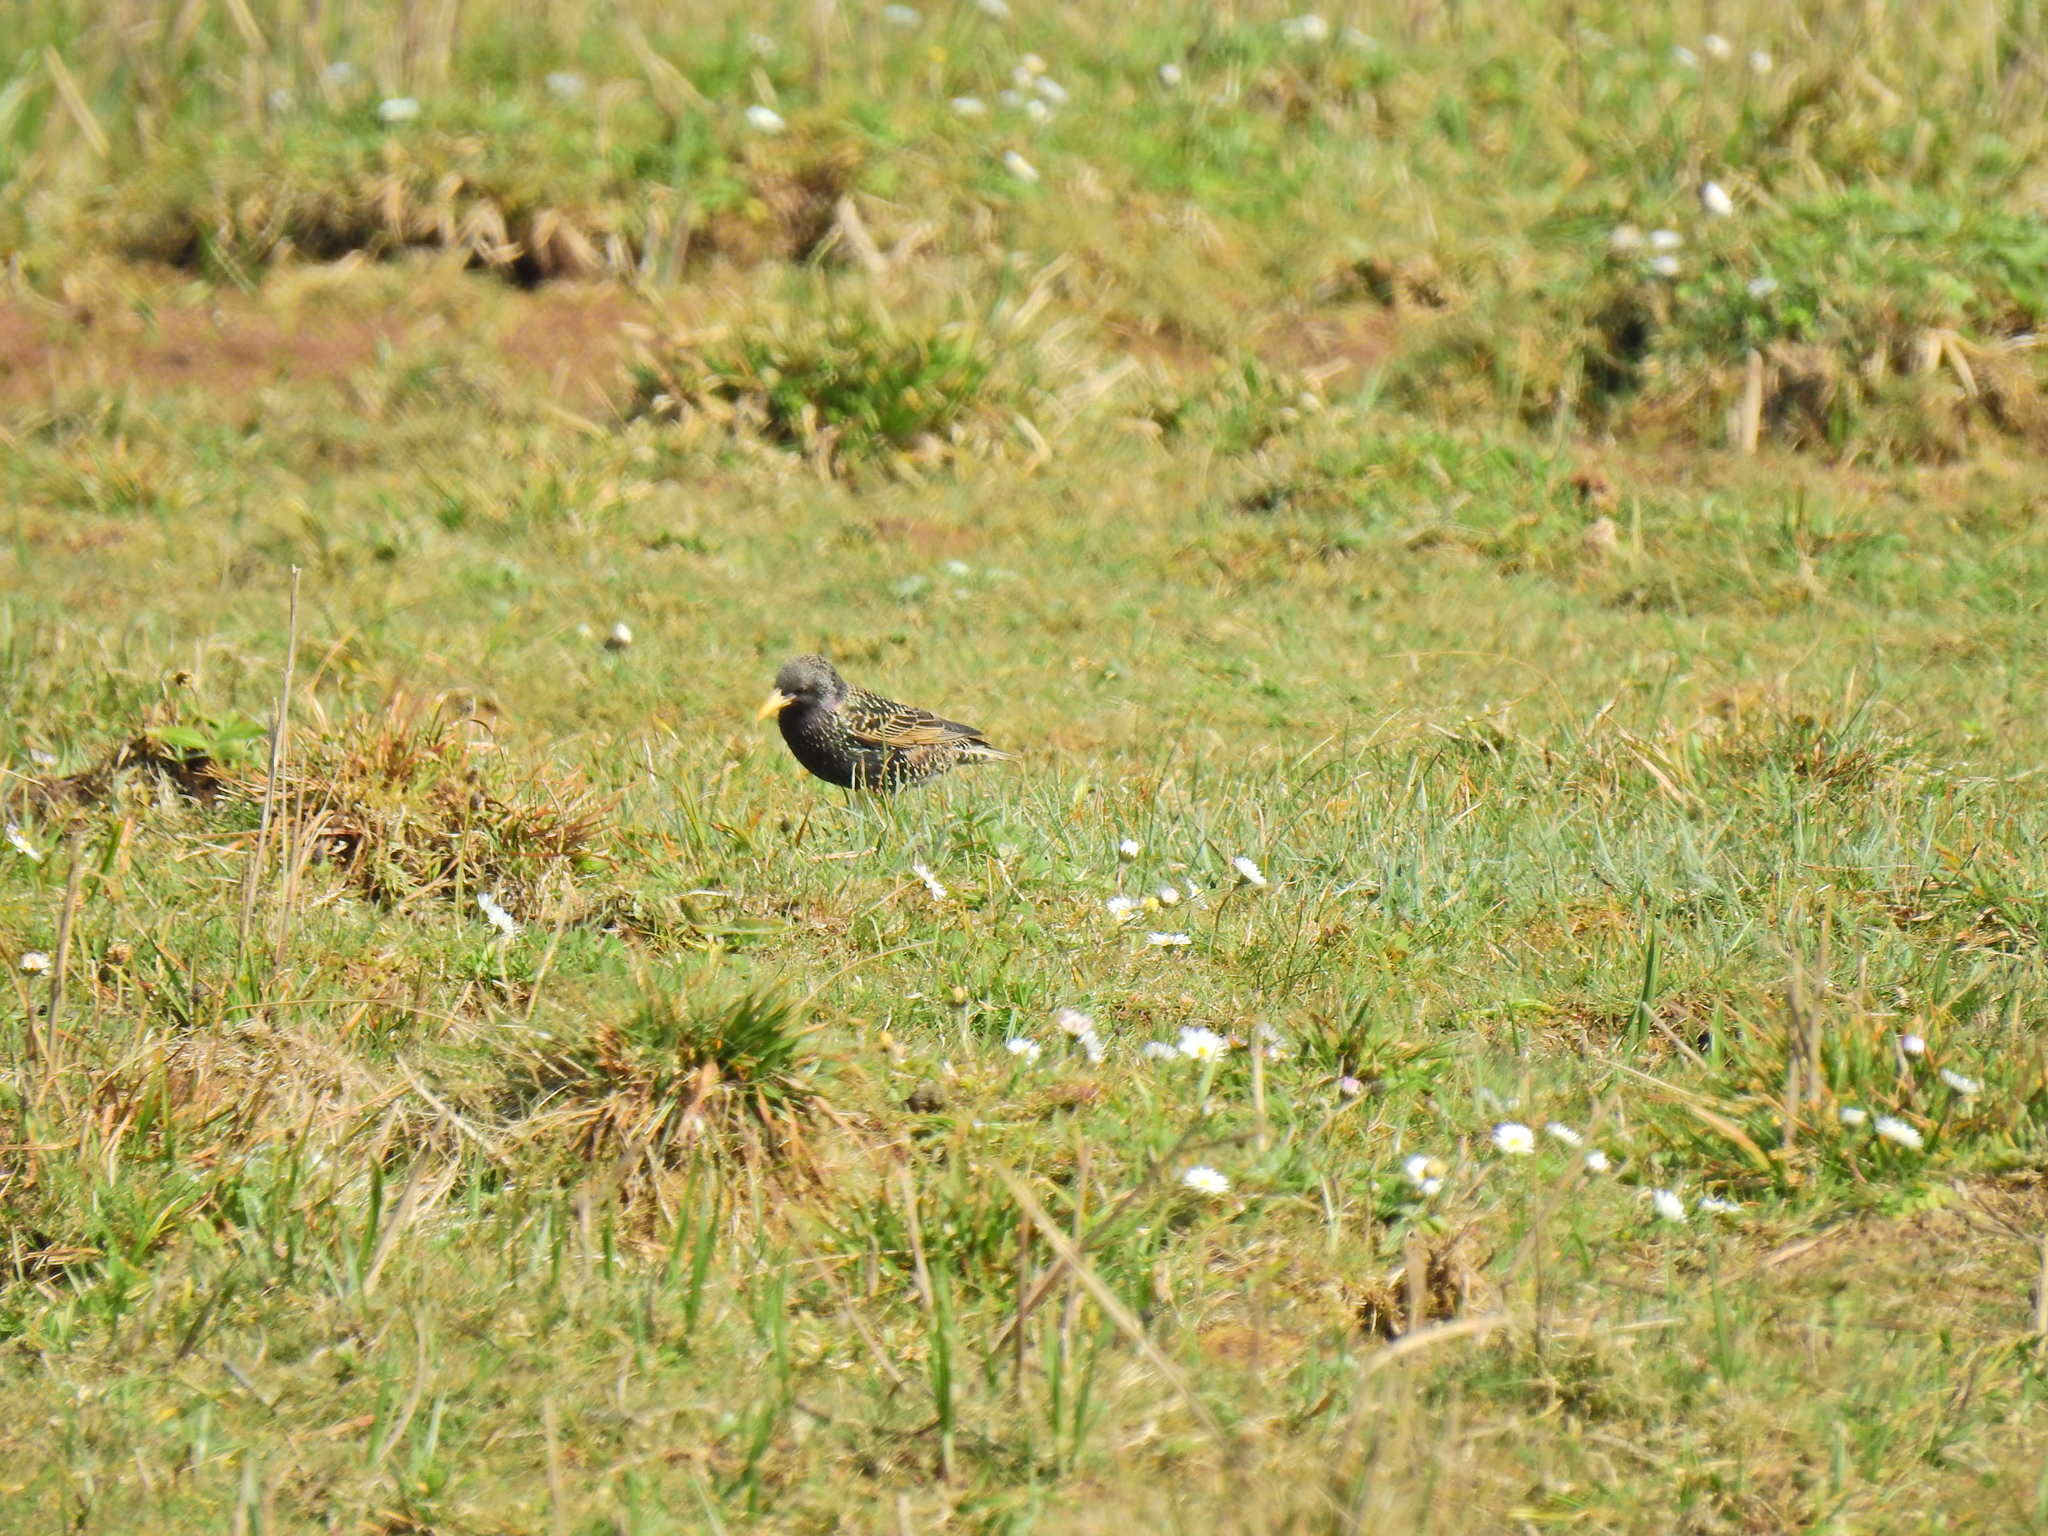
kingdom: Animalia
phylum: Chordata
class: Aves
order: Passeriformes
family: Sturnidae
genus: Sturnus
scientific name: Sturnus vulgaris
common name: Common starling
